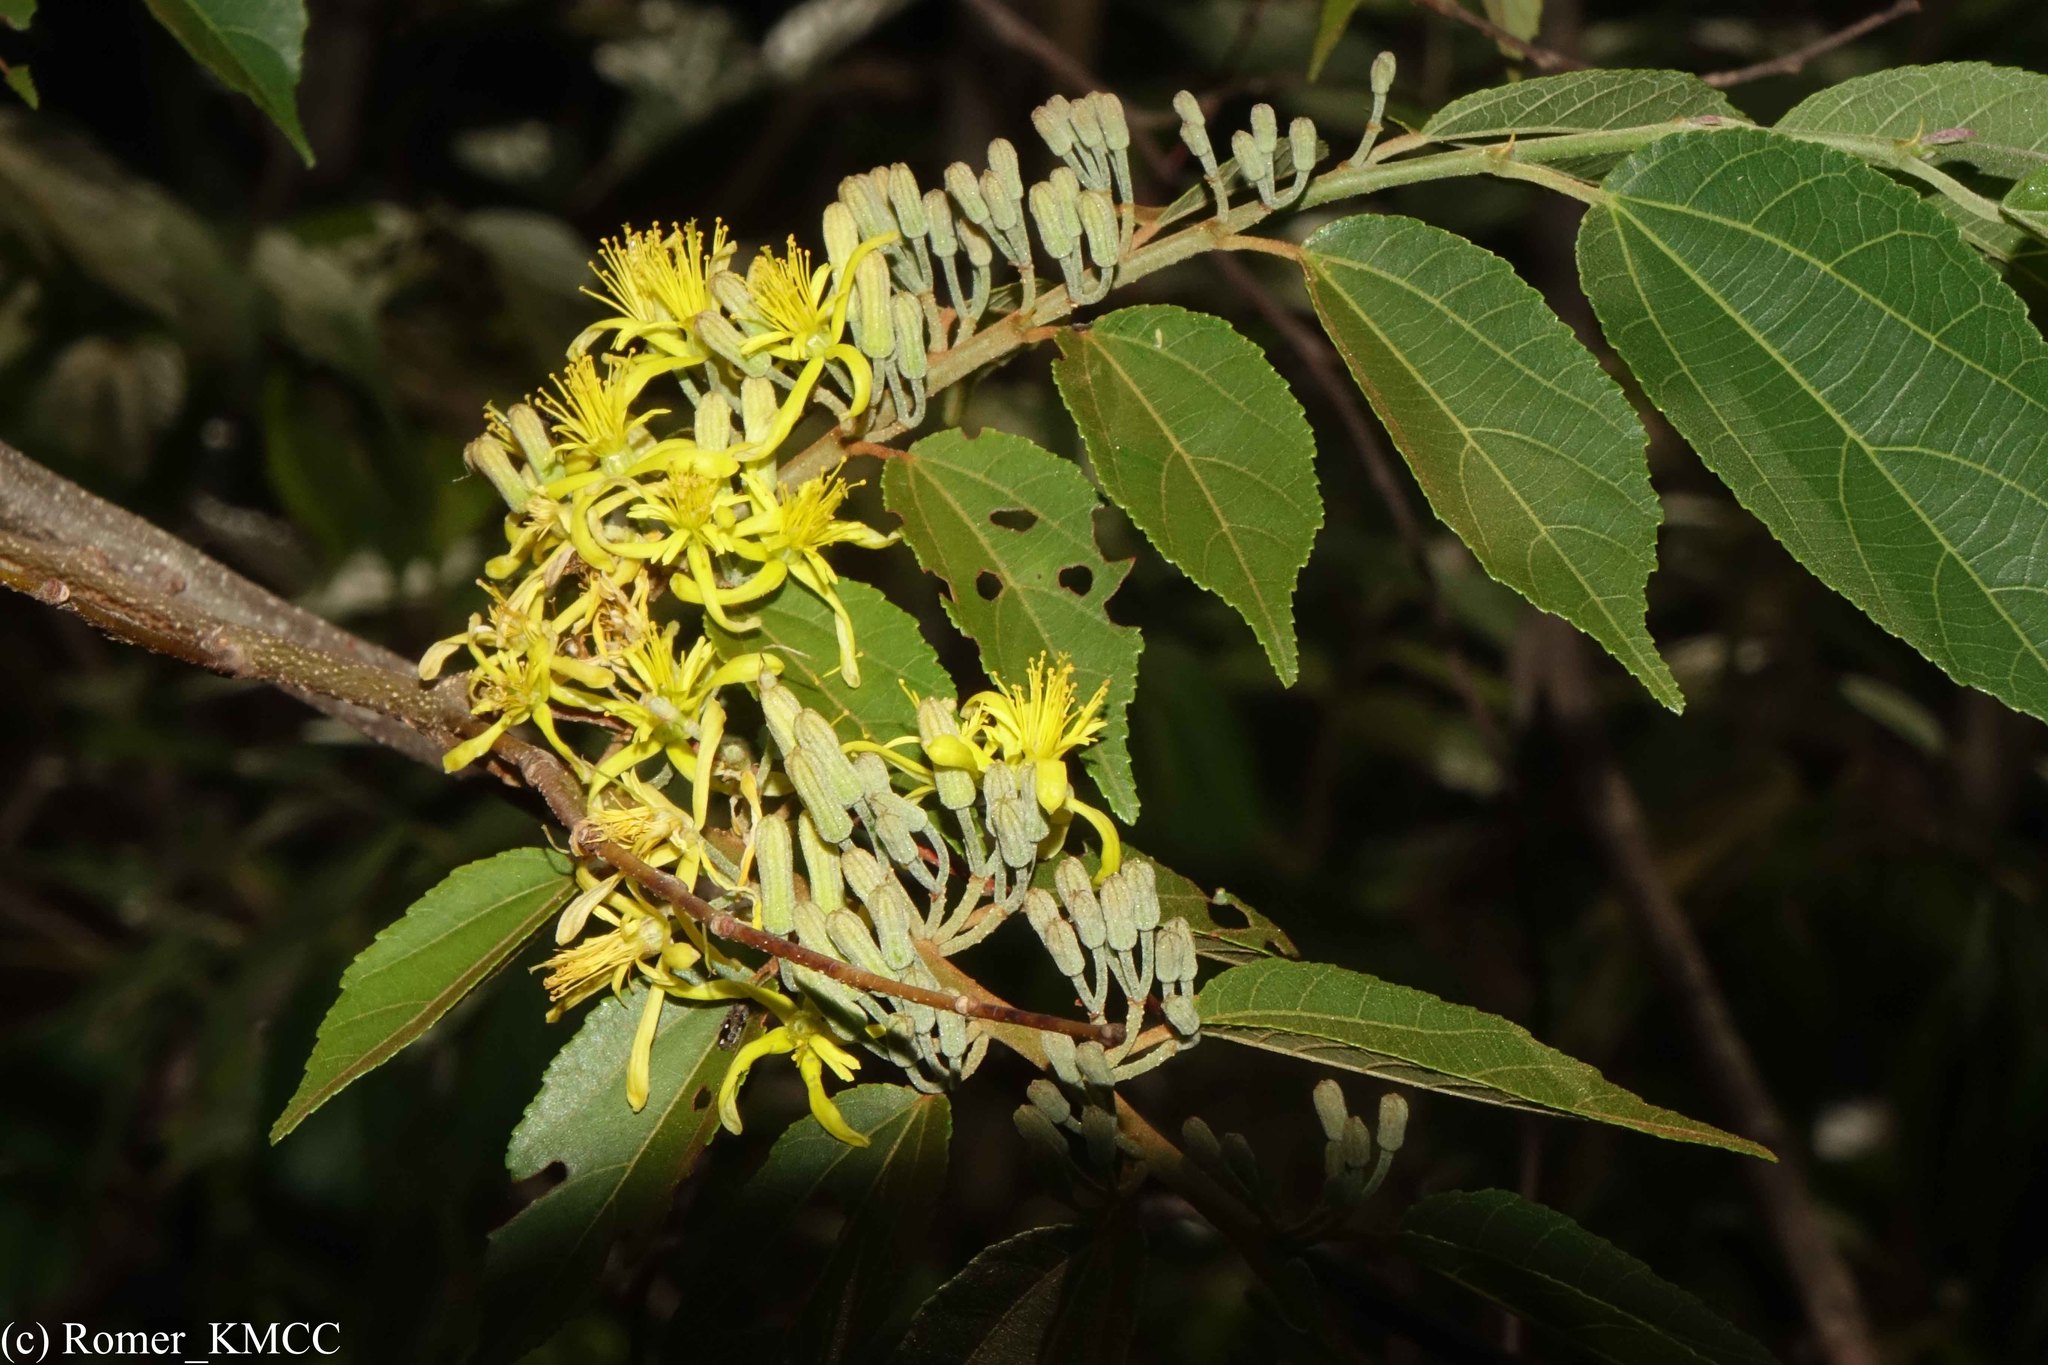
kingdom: Plantae
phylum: Tracheophyta
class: Magnoliopsida
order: Malvales
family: Malvaceae
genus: Grewia
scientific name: Grewia lavanalensis
